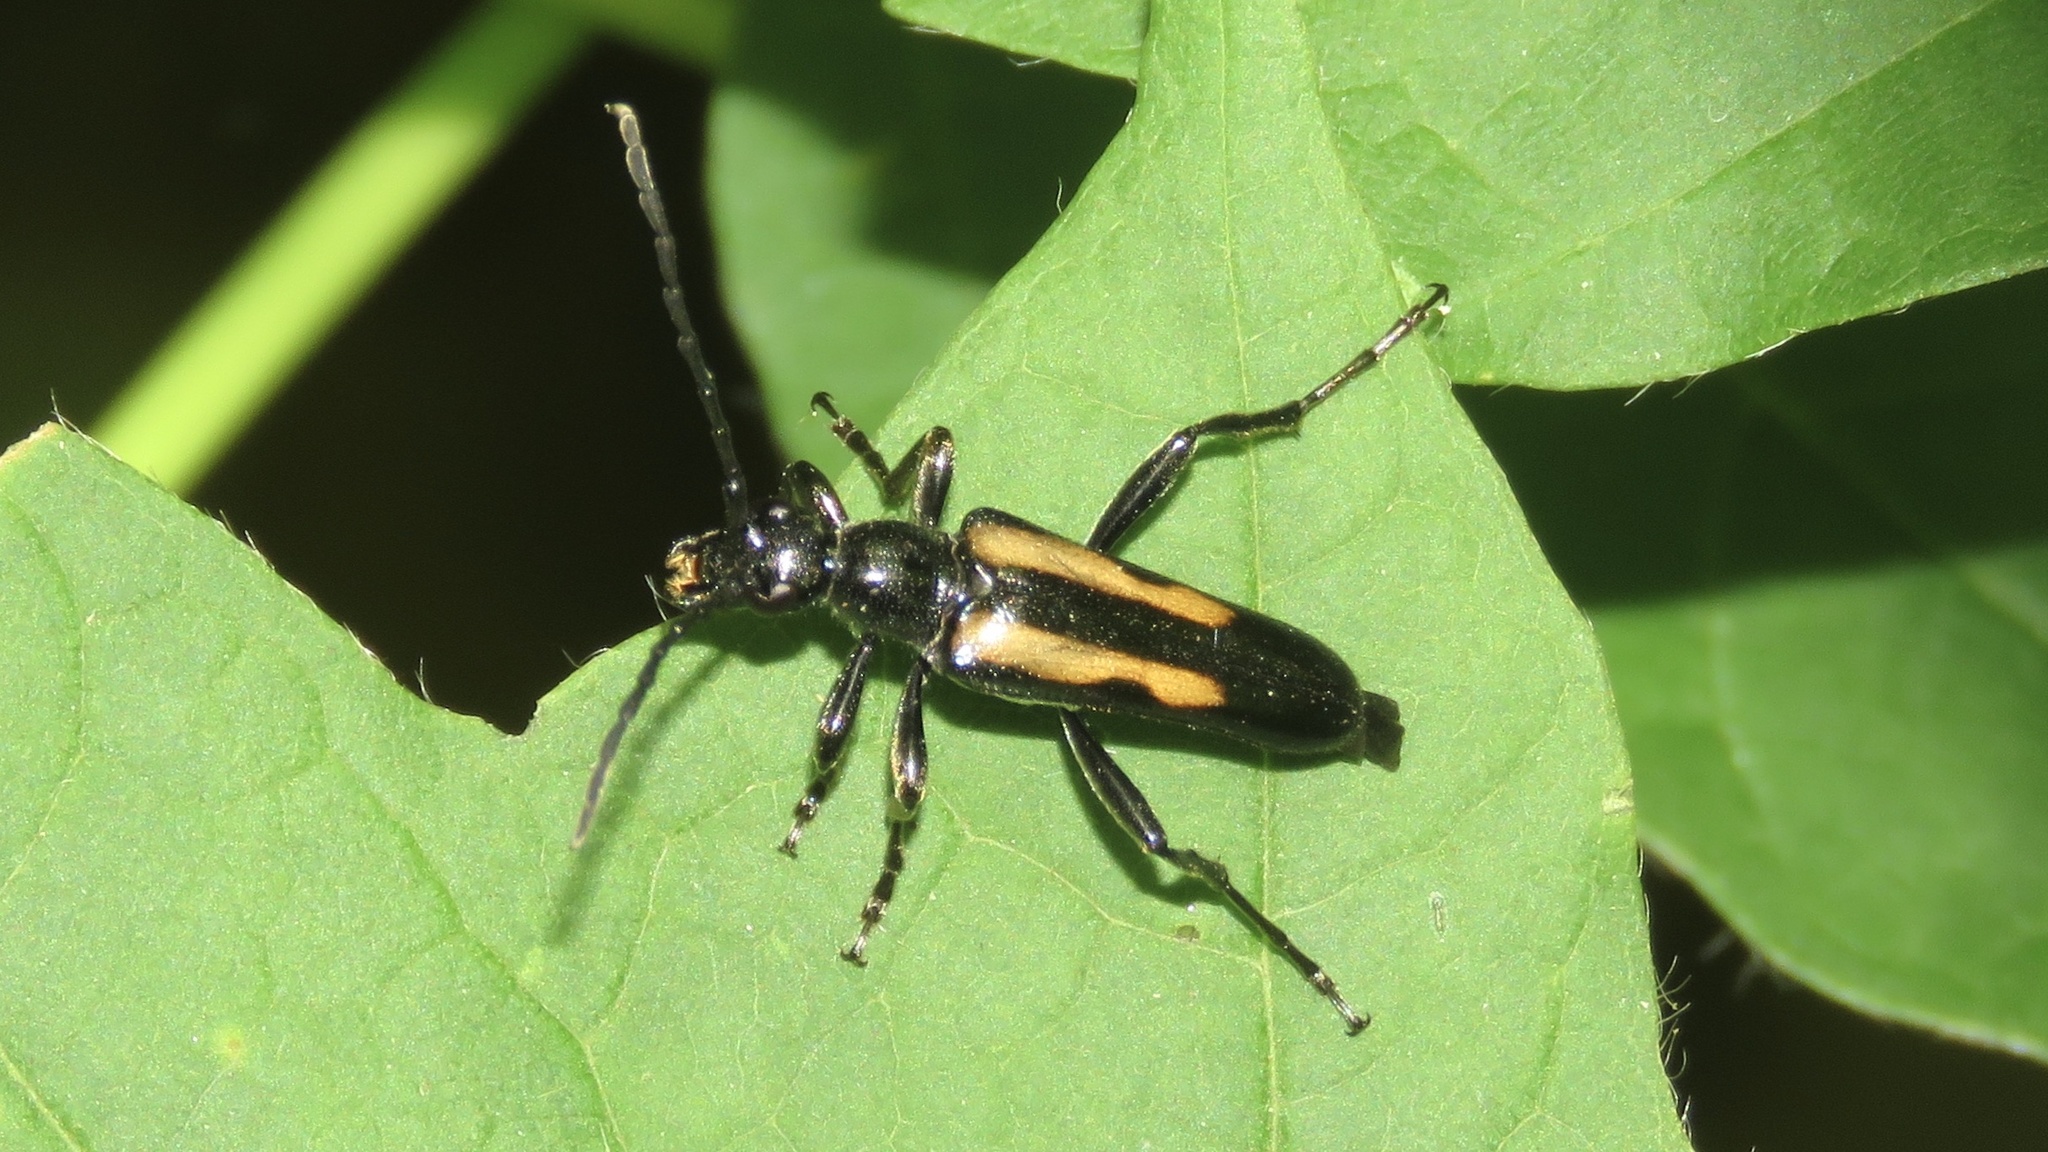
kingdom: Animalia
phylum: Arthropoda
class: Insecta
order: Coleoptera
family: Cerambycidae
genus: Strangalepta
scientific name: Strangalepta abbreviata
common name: Strangalepta flower longhorn beetle
